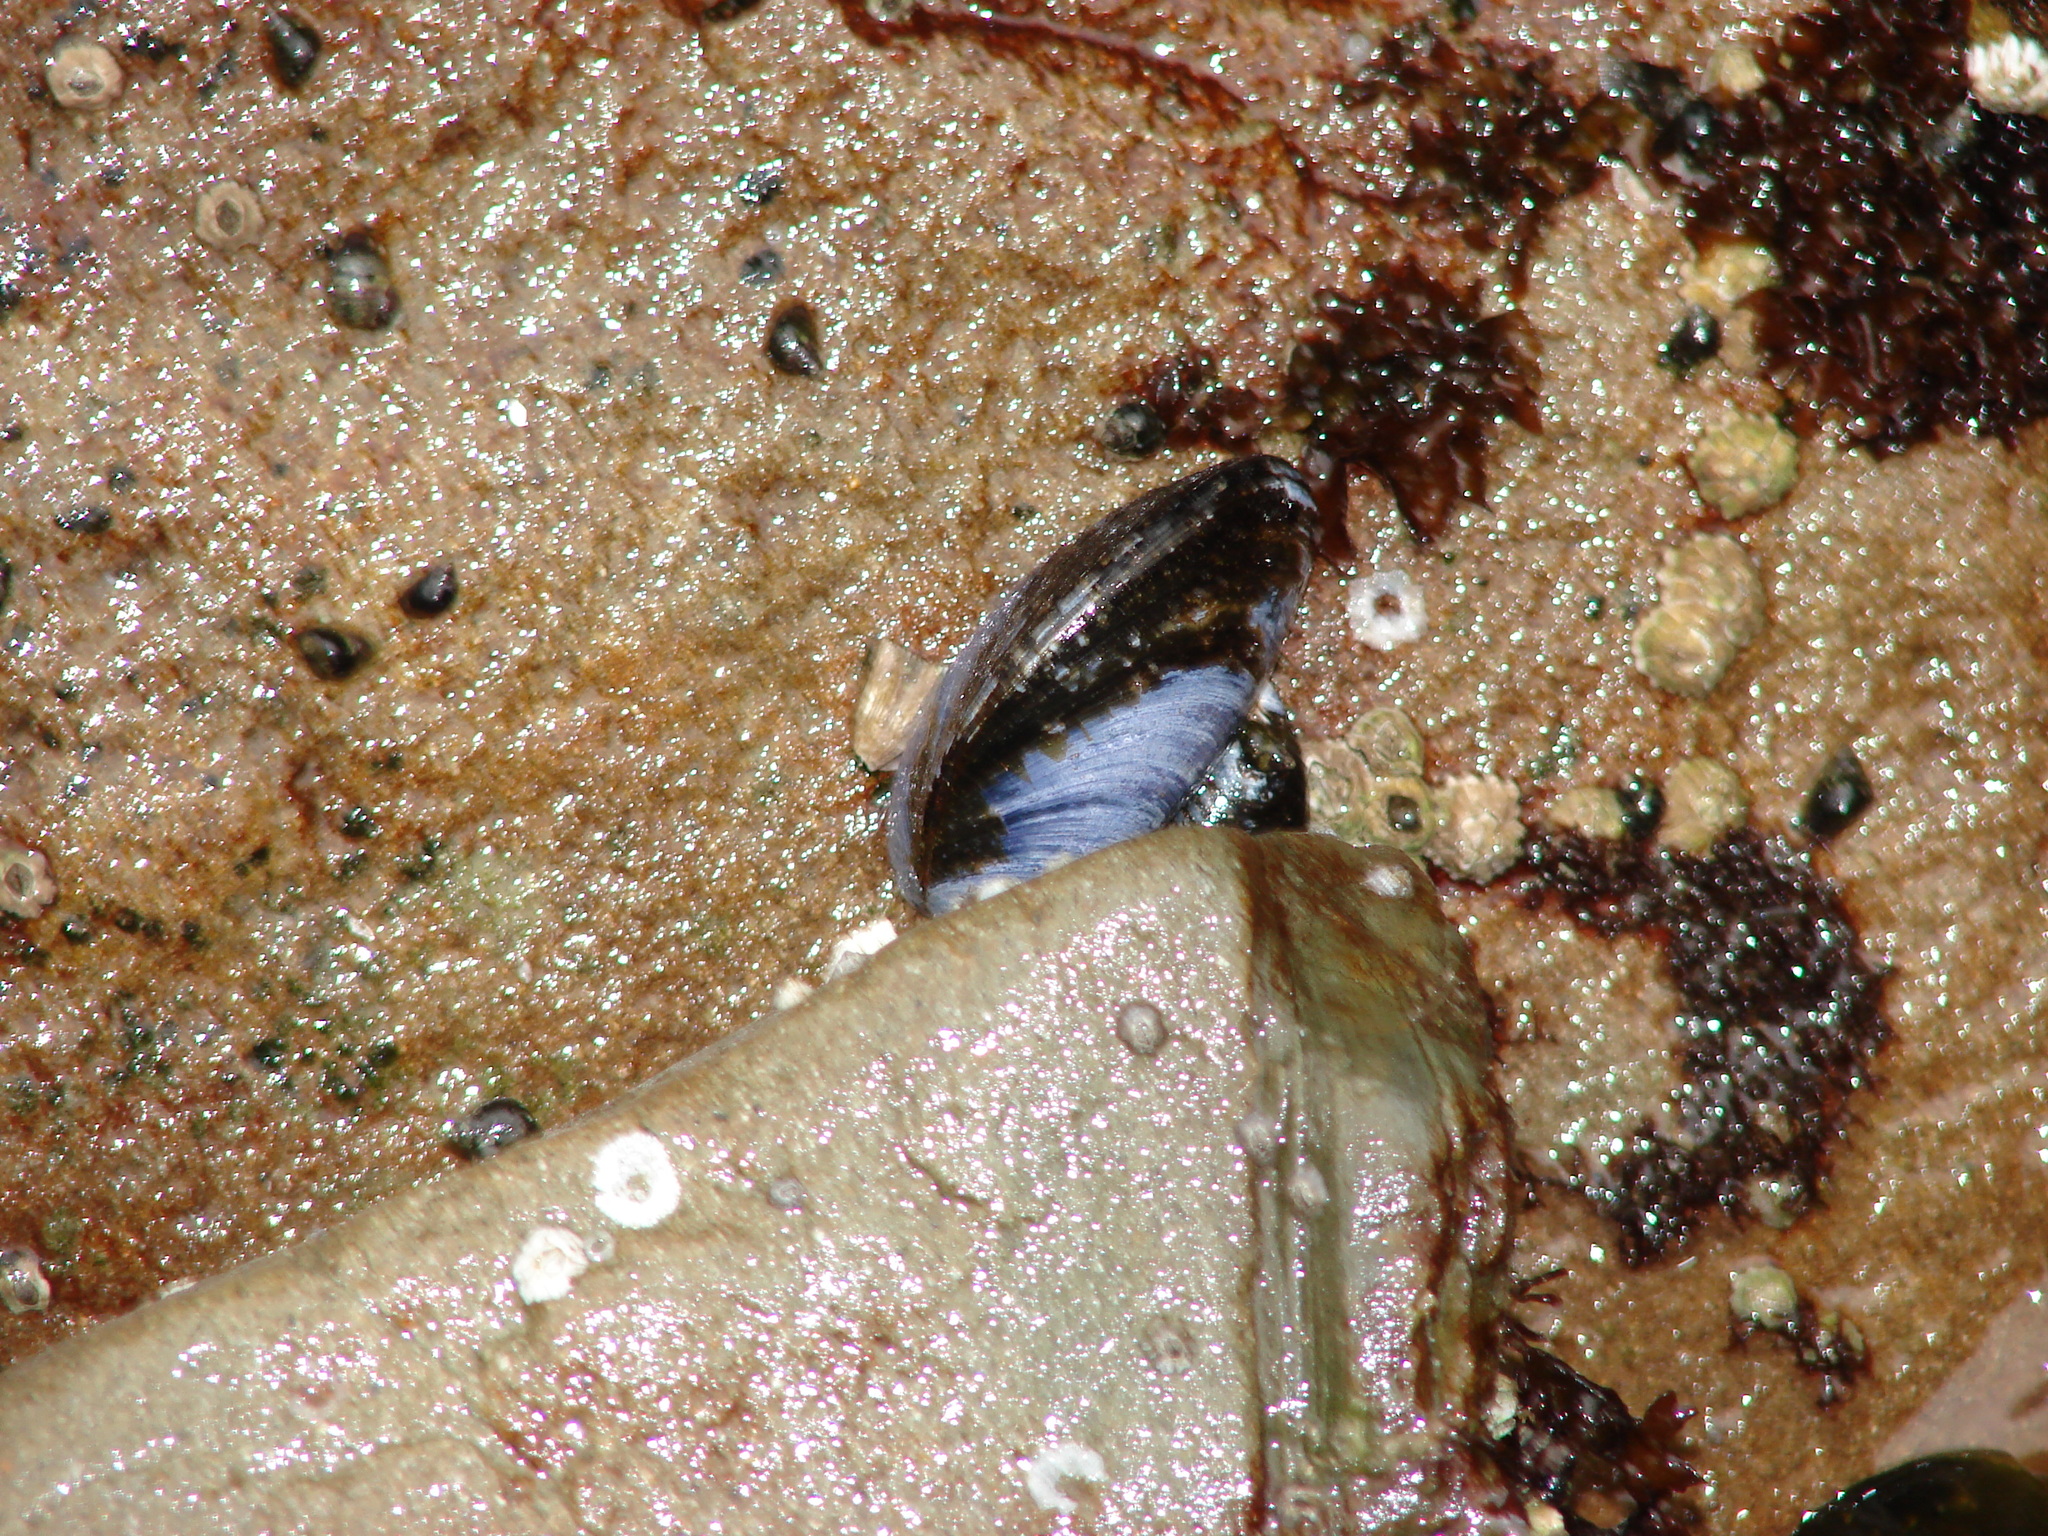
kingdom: Animalia
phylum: Mollusca
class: Bivalvia
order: Mytilida
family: Mytilidae
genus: Mytilus
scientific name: Mytilus
